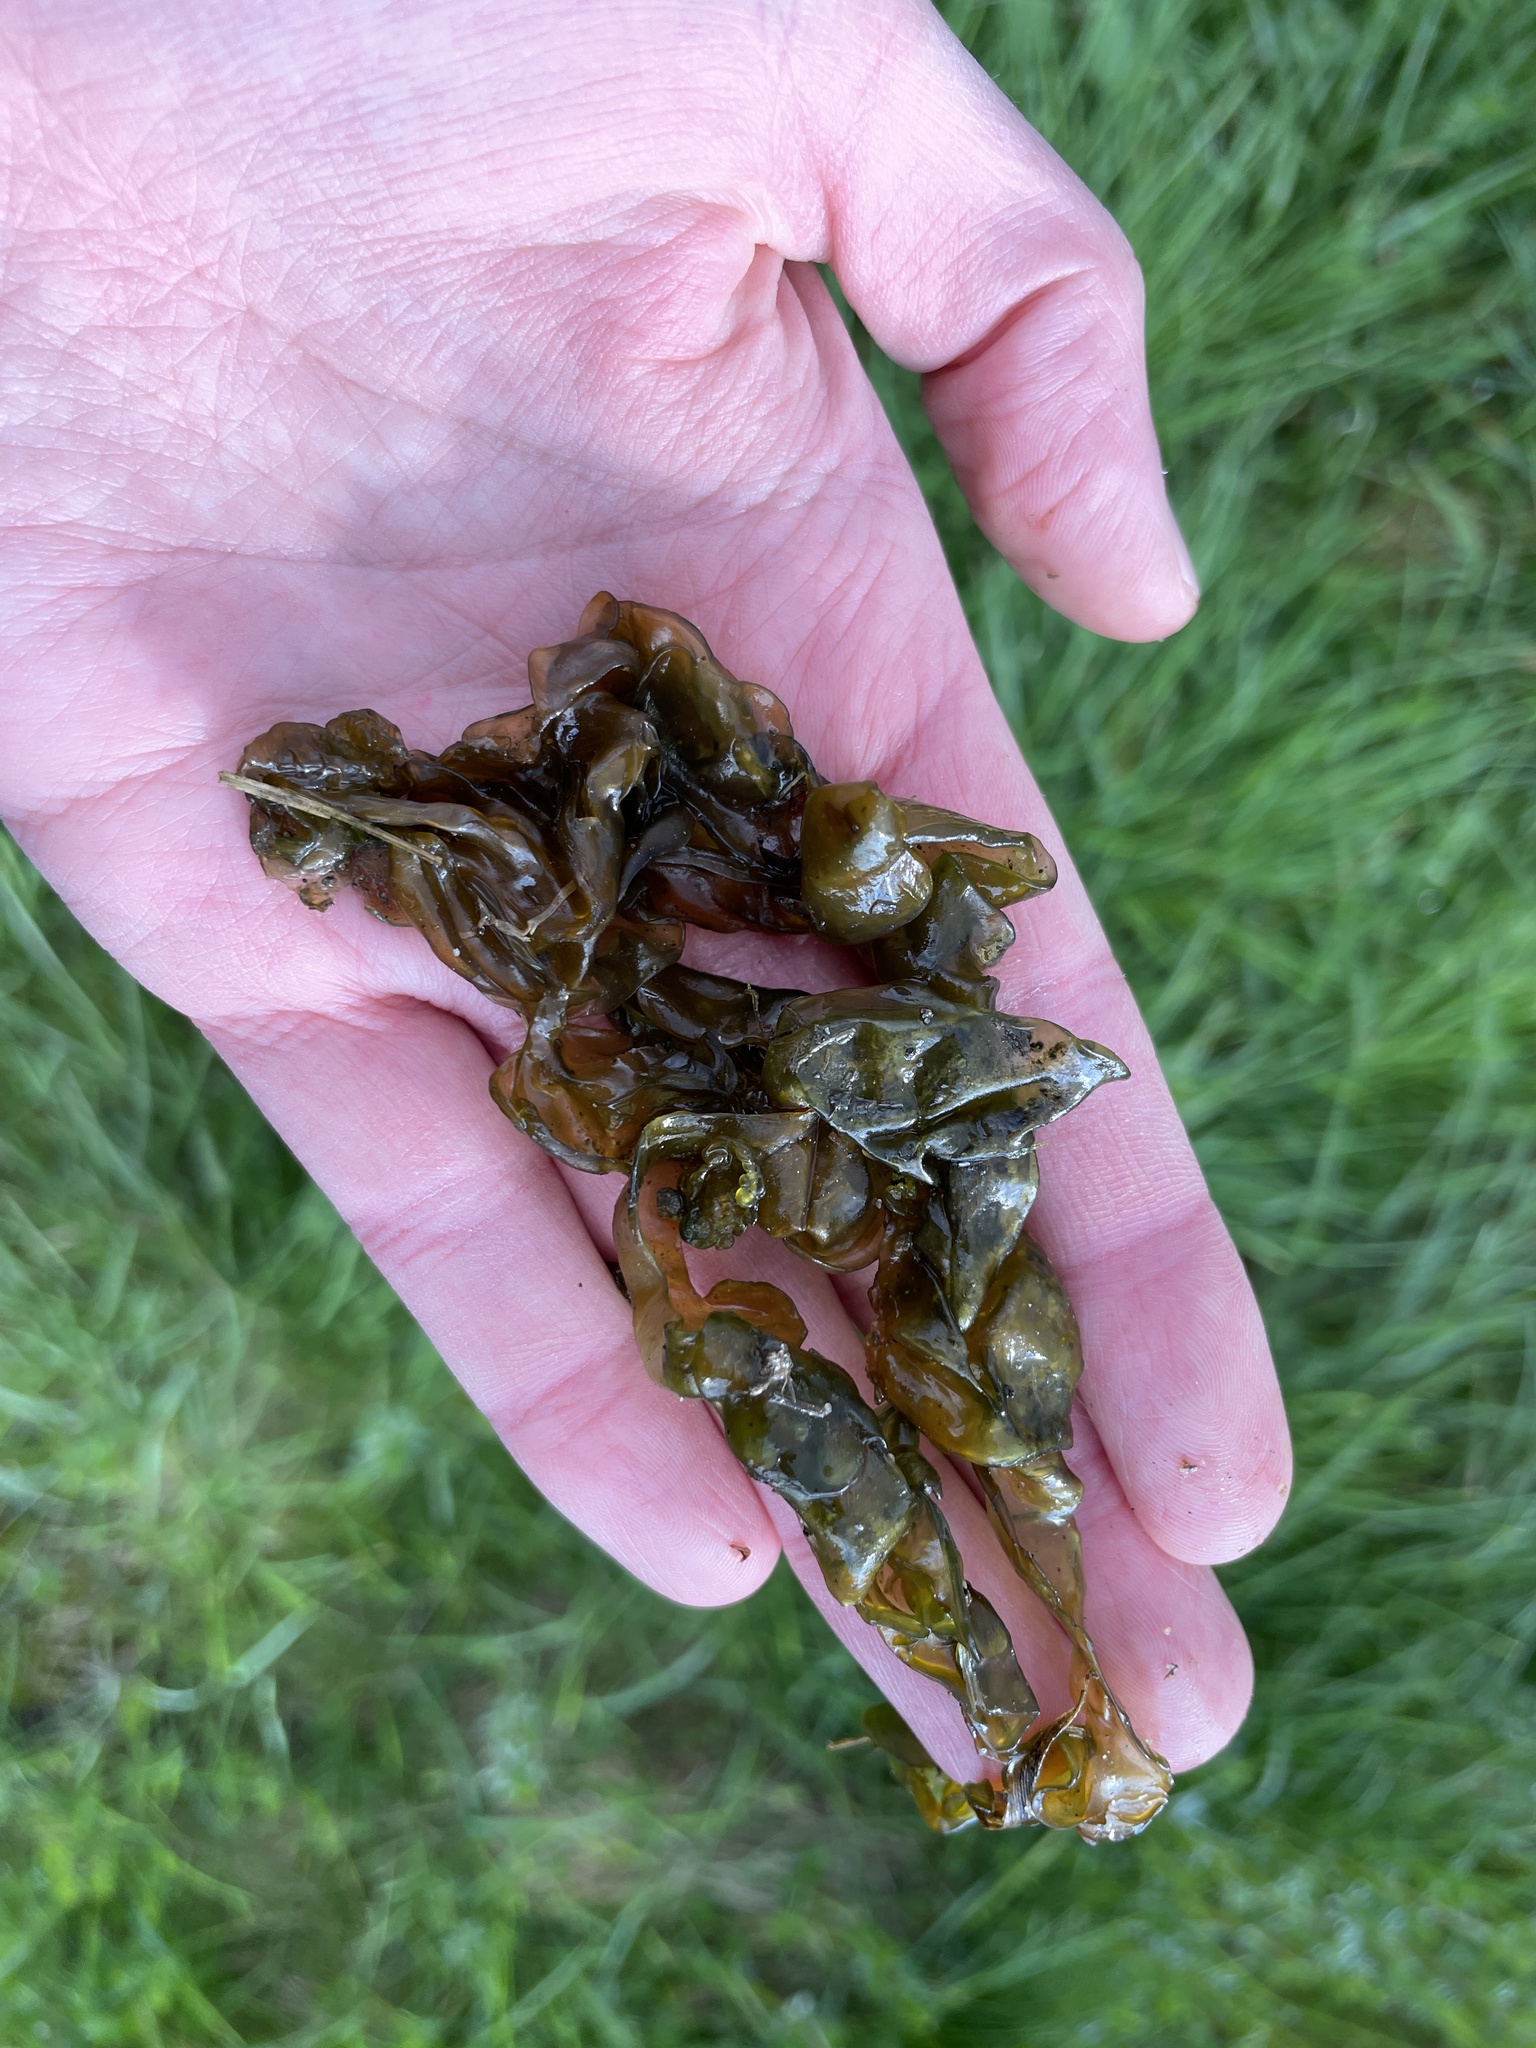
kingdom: Bacteria
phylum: Cyanobacteria
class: Cyanobacteriia
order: Cyanobacteriales
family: Nostocaceae
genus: Nostoc
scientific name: Nostoc commune
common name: Star jelly
